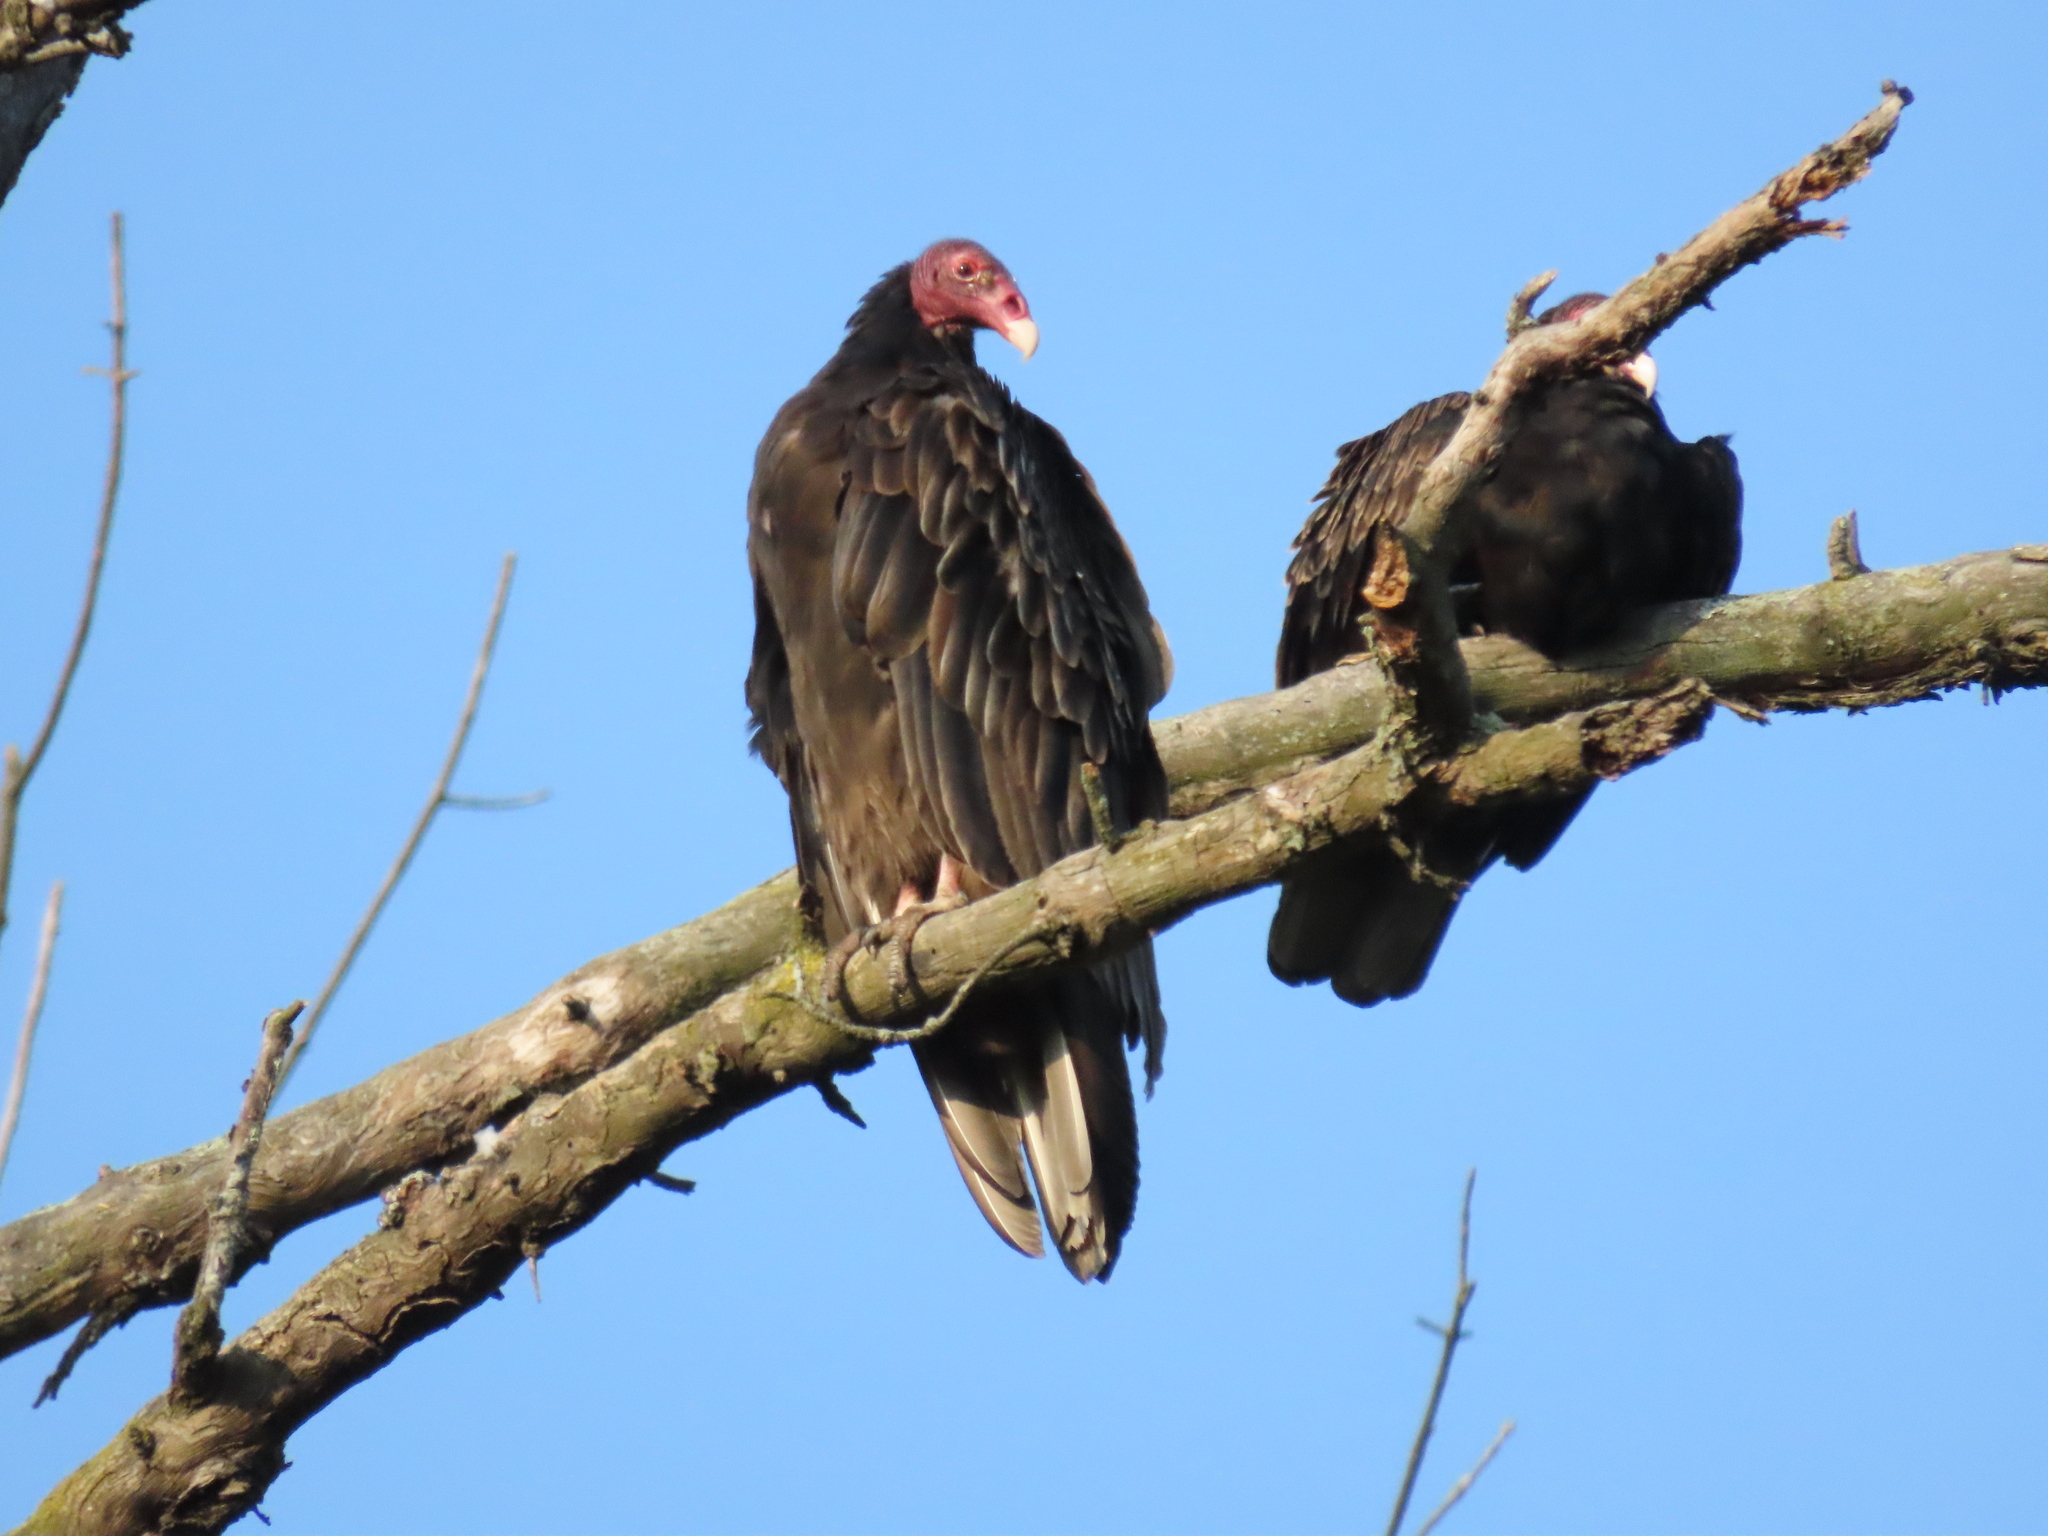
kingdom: Animalia
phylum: Chordata
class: Aves
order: Accipitriformes
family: Cathartidae
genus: Cathartes
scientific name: Cathartes aura
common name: Turkey vulture
